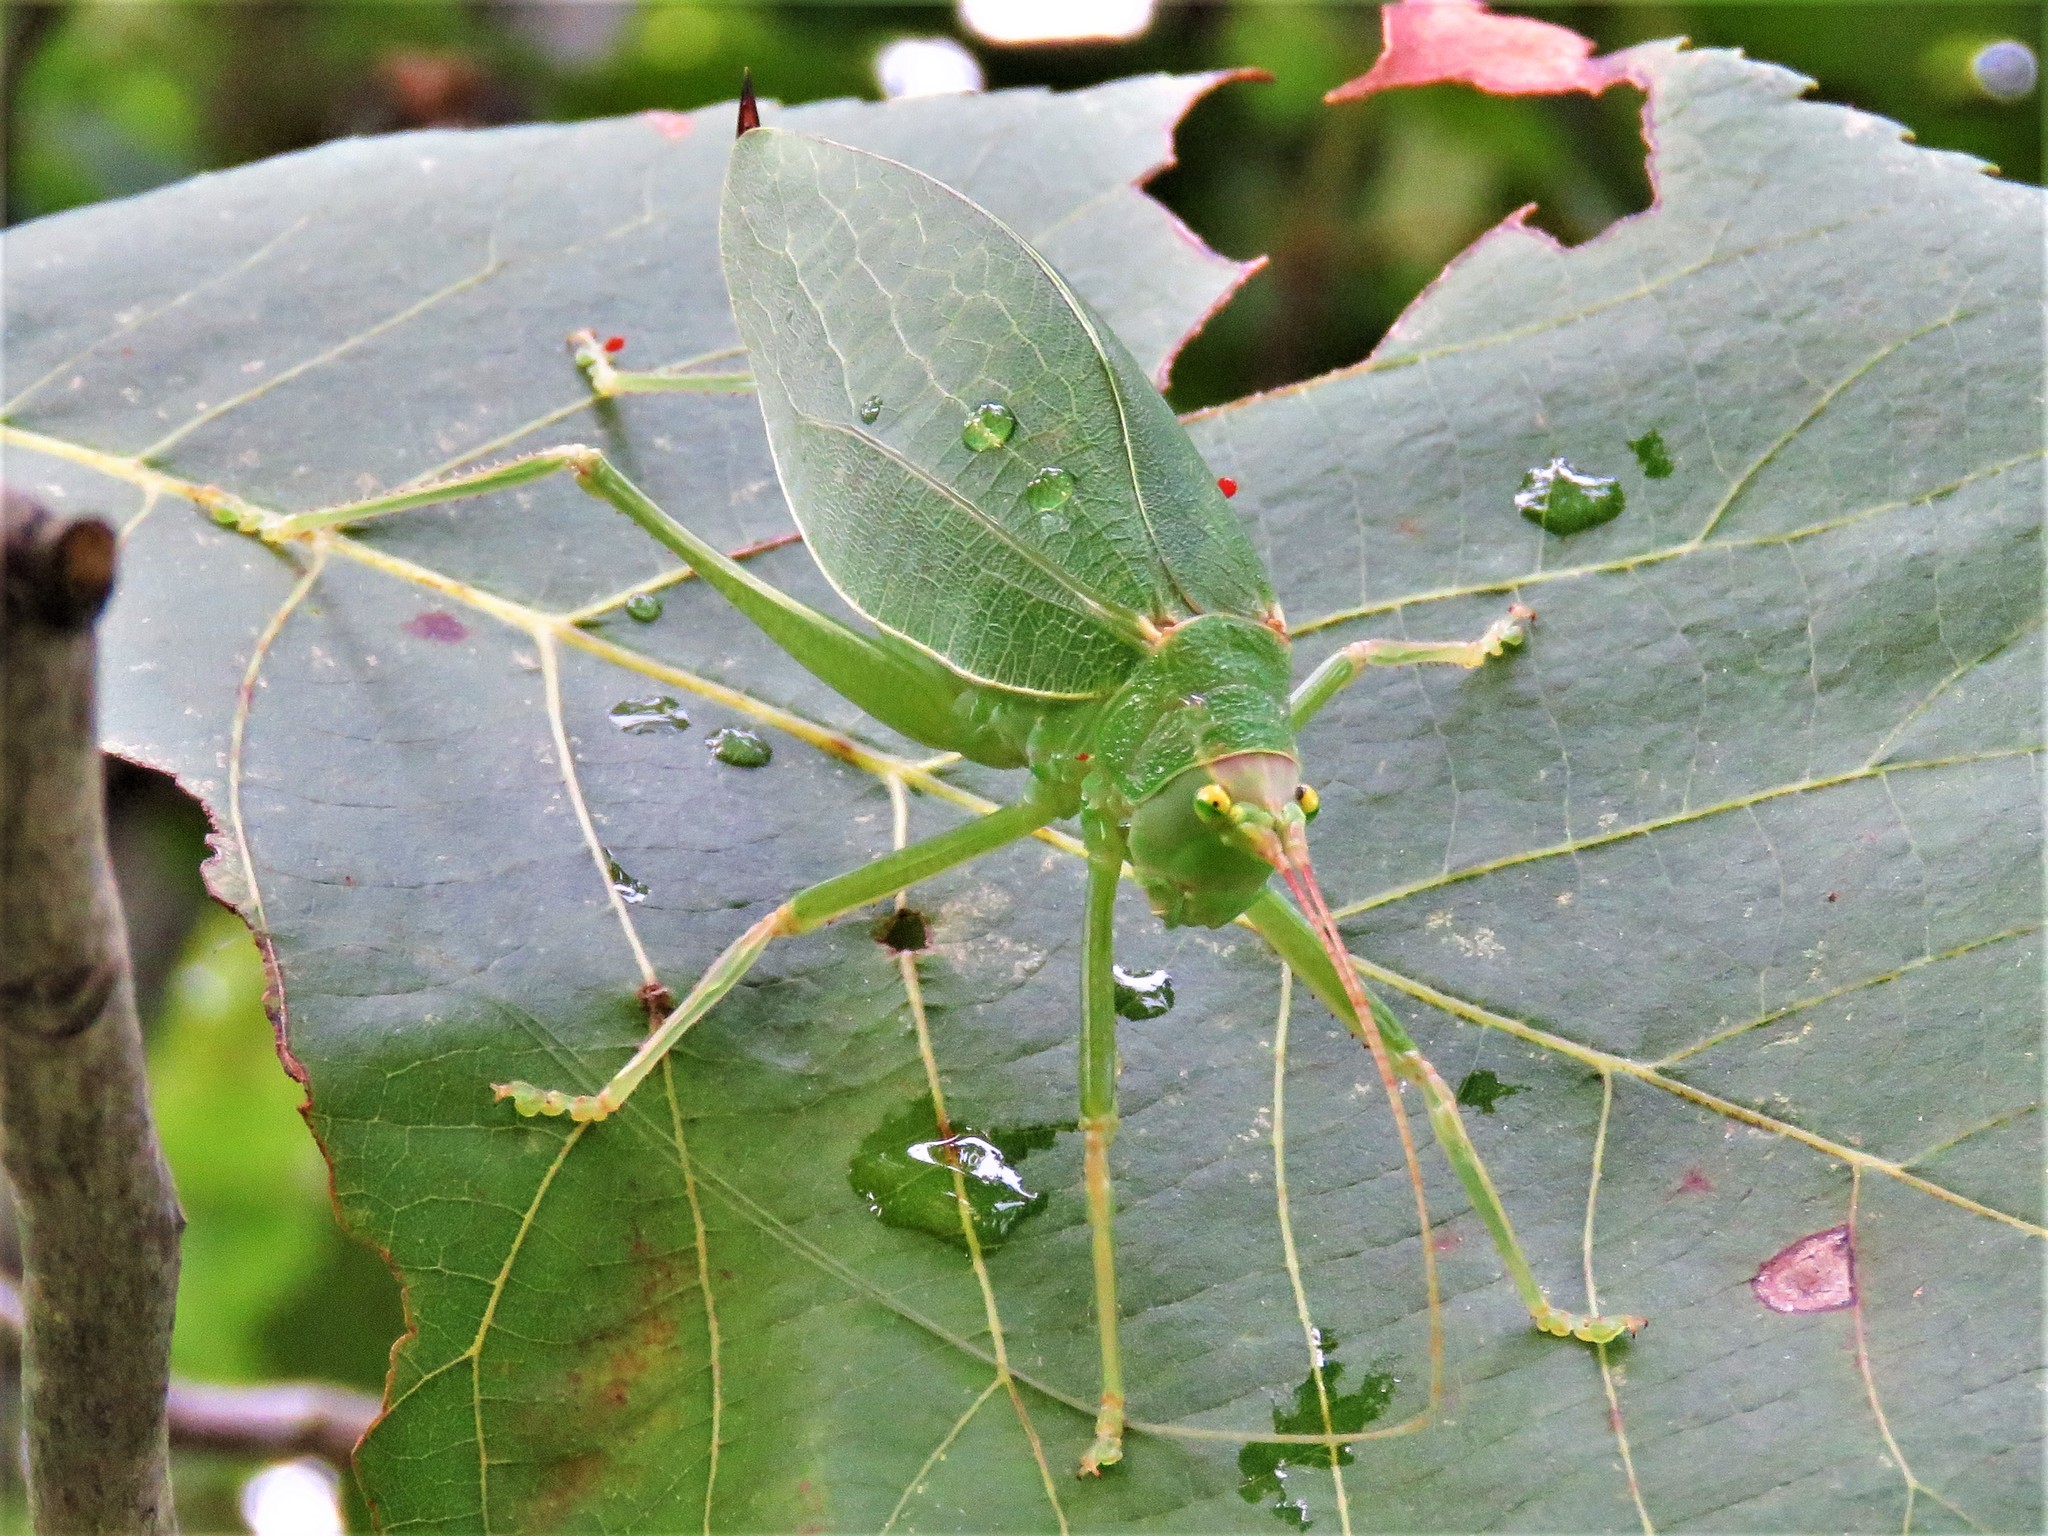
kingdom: Animalia
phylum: Arthropoda
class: Insecta
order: Orthoptera
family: Tettigoniidae
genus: Pterophylla
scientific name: Pterophylla camellifolia
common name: Common true katydid
